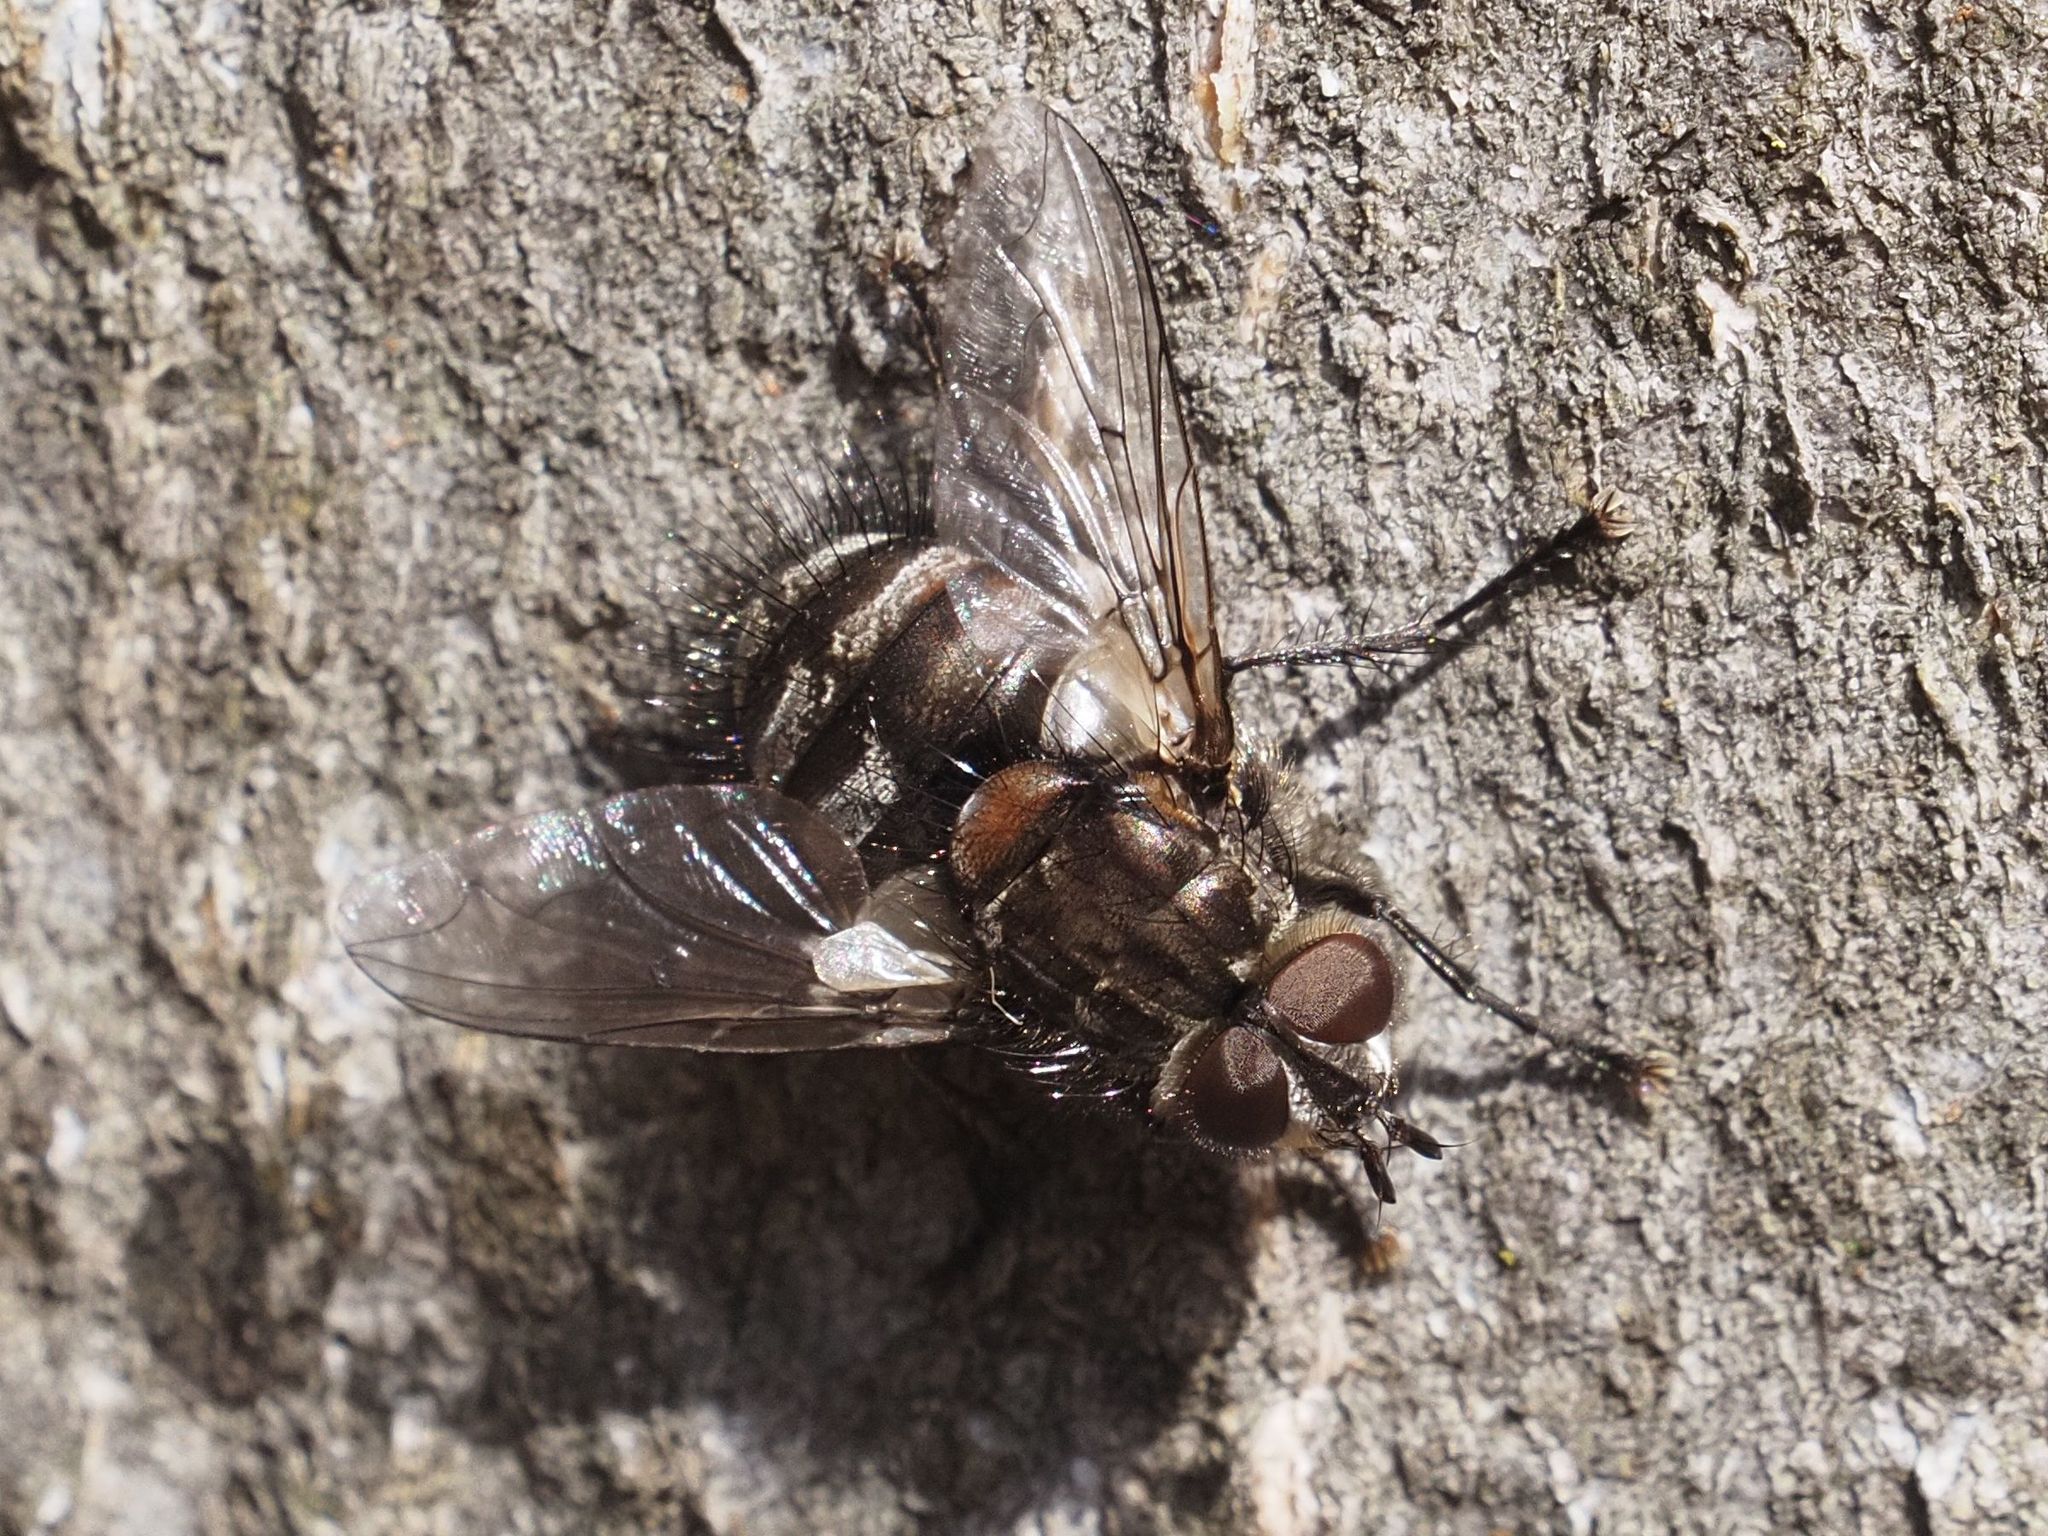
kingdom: Animalia
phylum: Arthropoda
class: Insecta
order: Diptera
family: Tachinidae
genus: Panzeria
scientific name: Panzeria puparum
